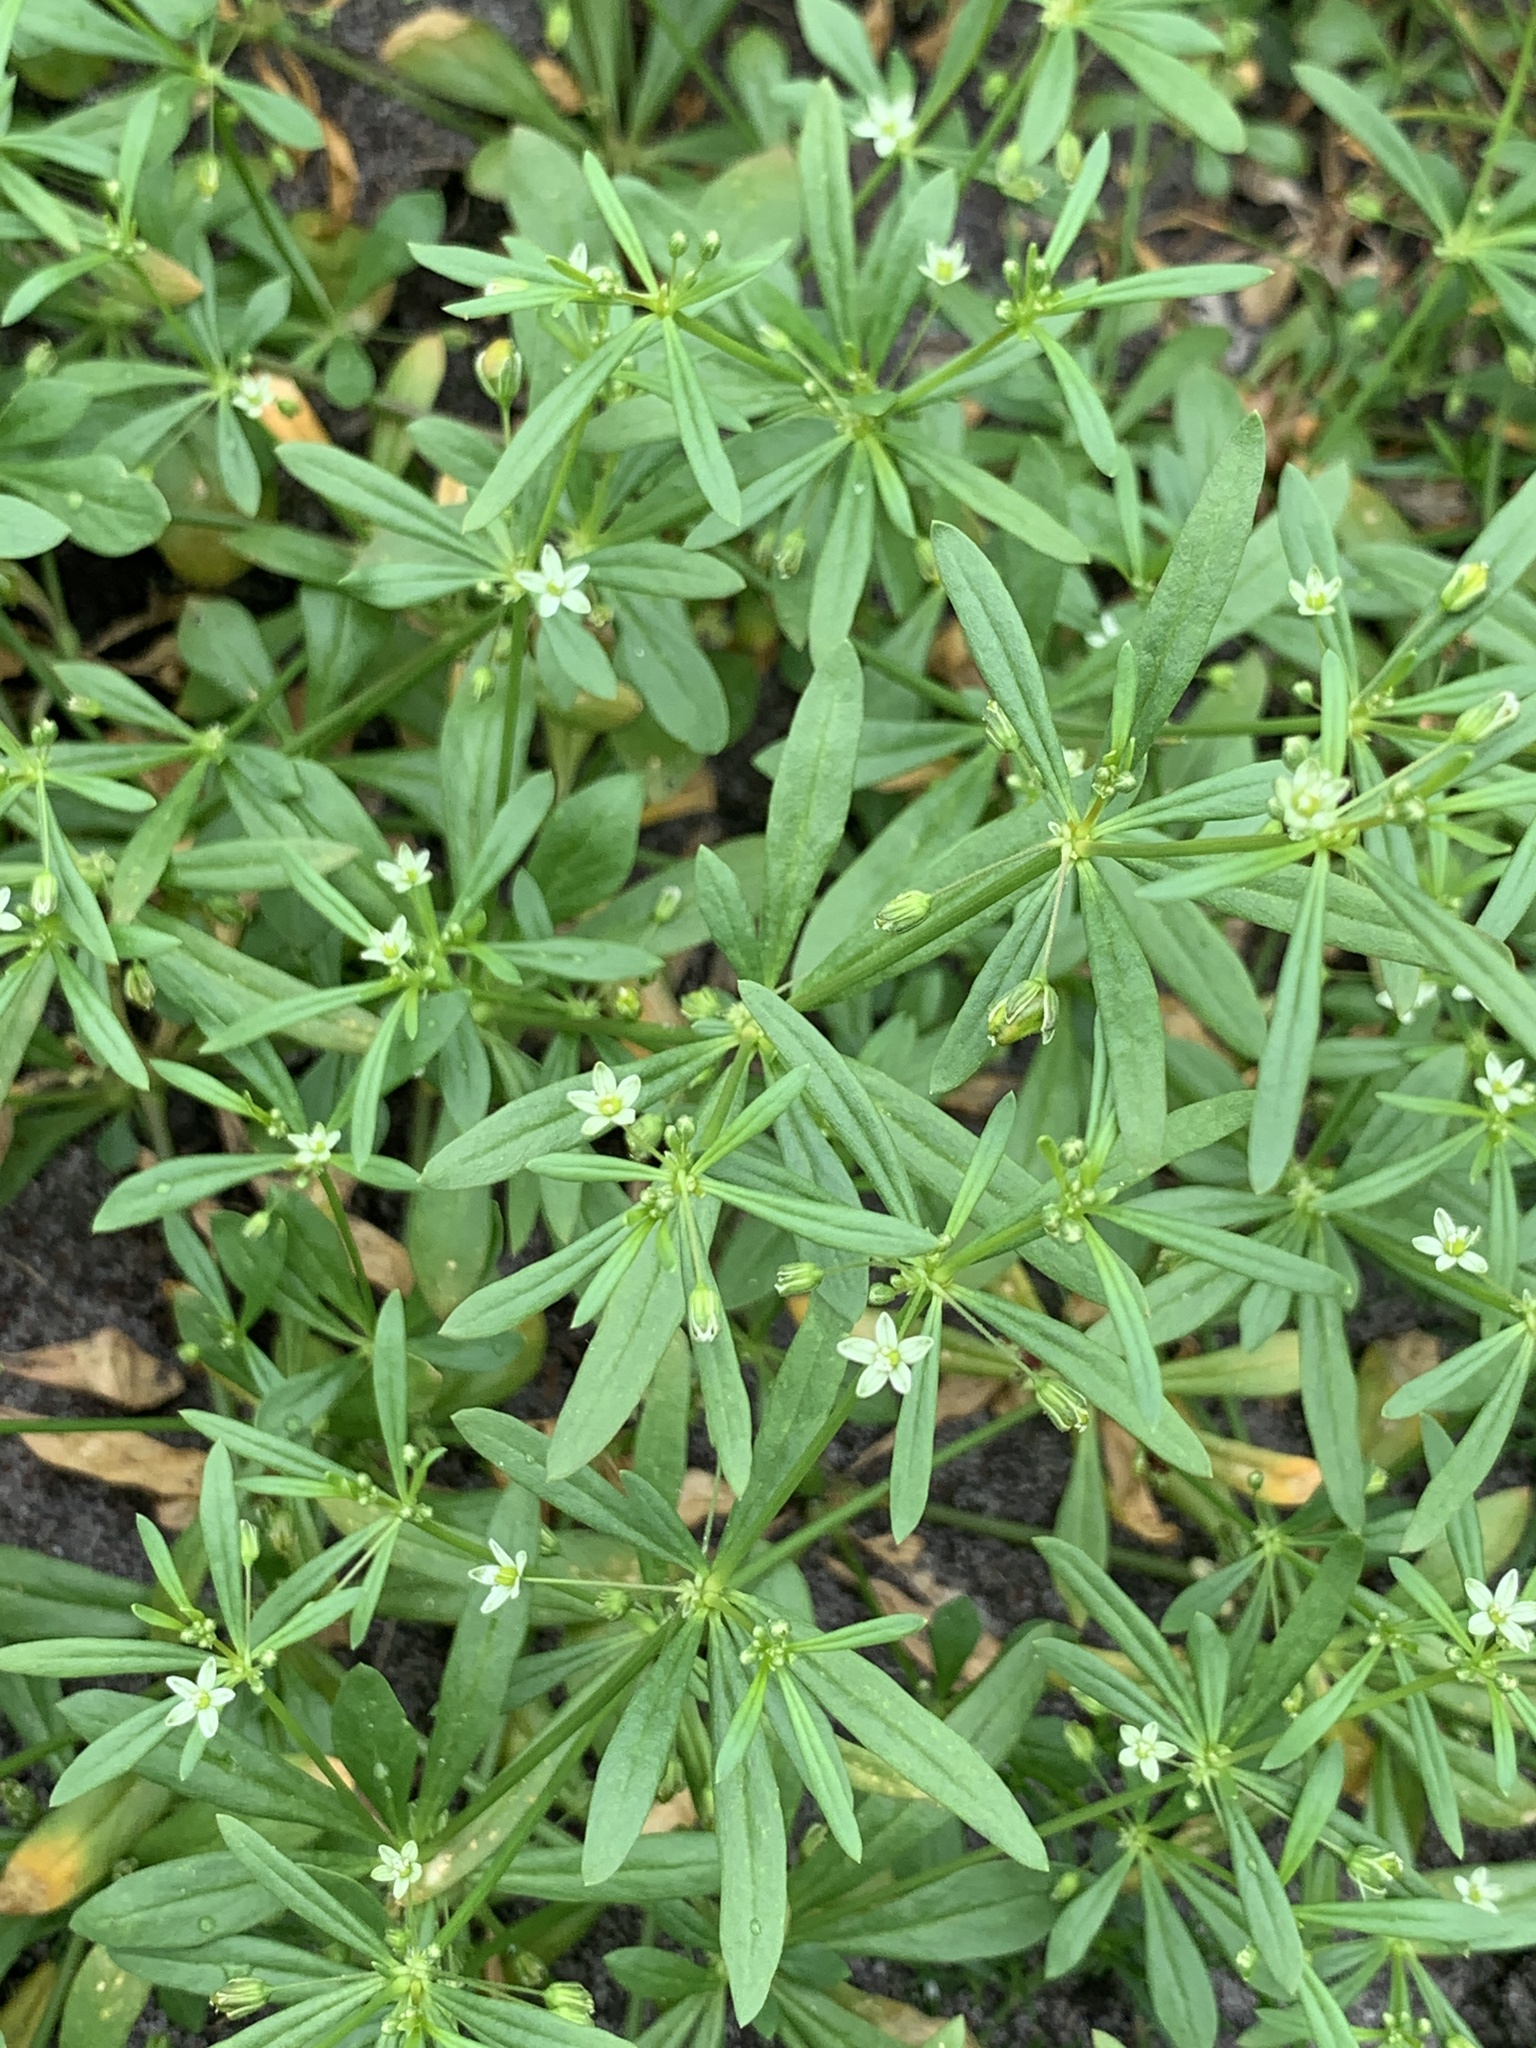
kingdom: Plantae
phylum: Tracheophyta
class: Magnoliopsida
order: Caryophyllales
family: Molluginaceae
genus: Mollugo
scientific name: Mollugo verticillata
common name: Green carpetweed
